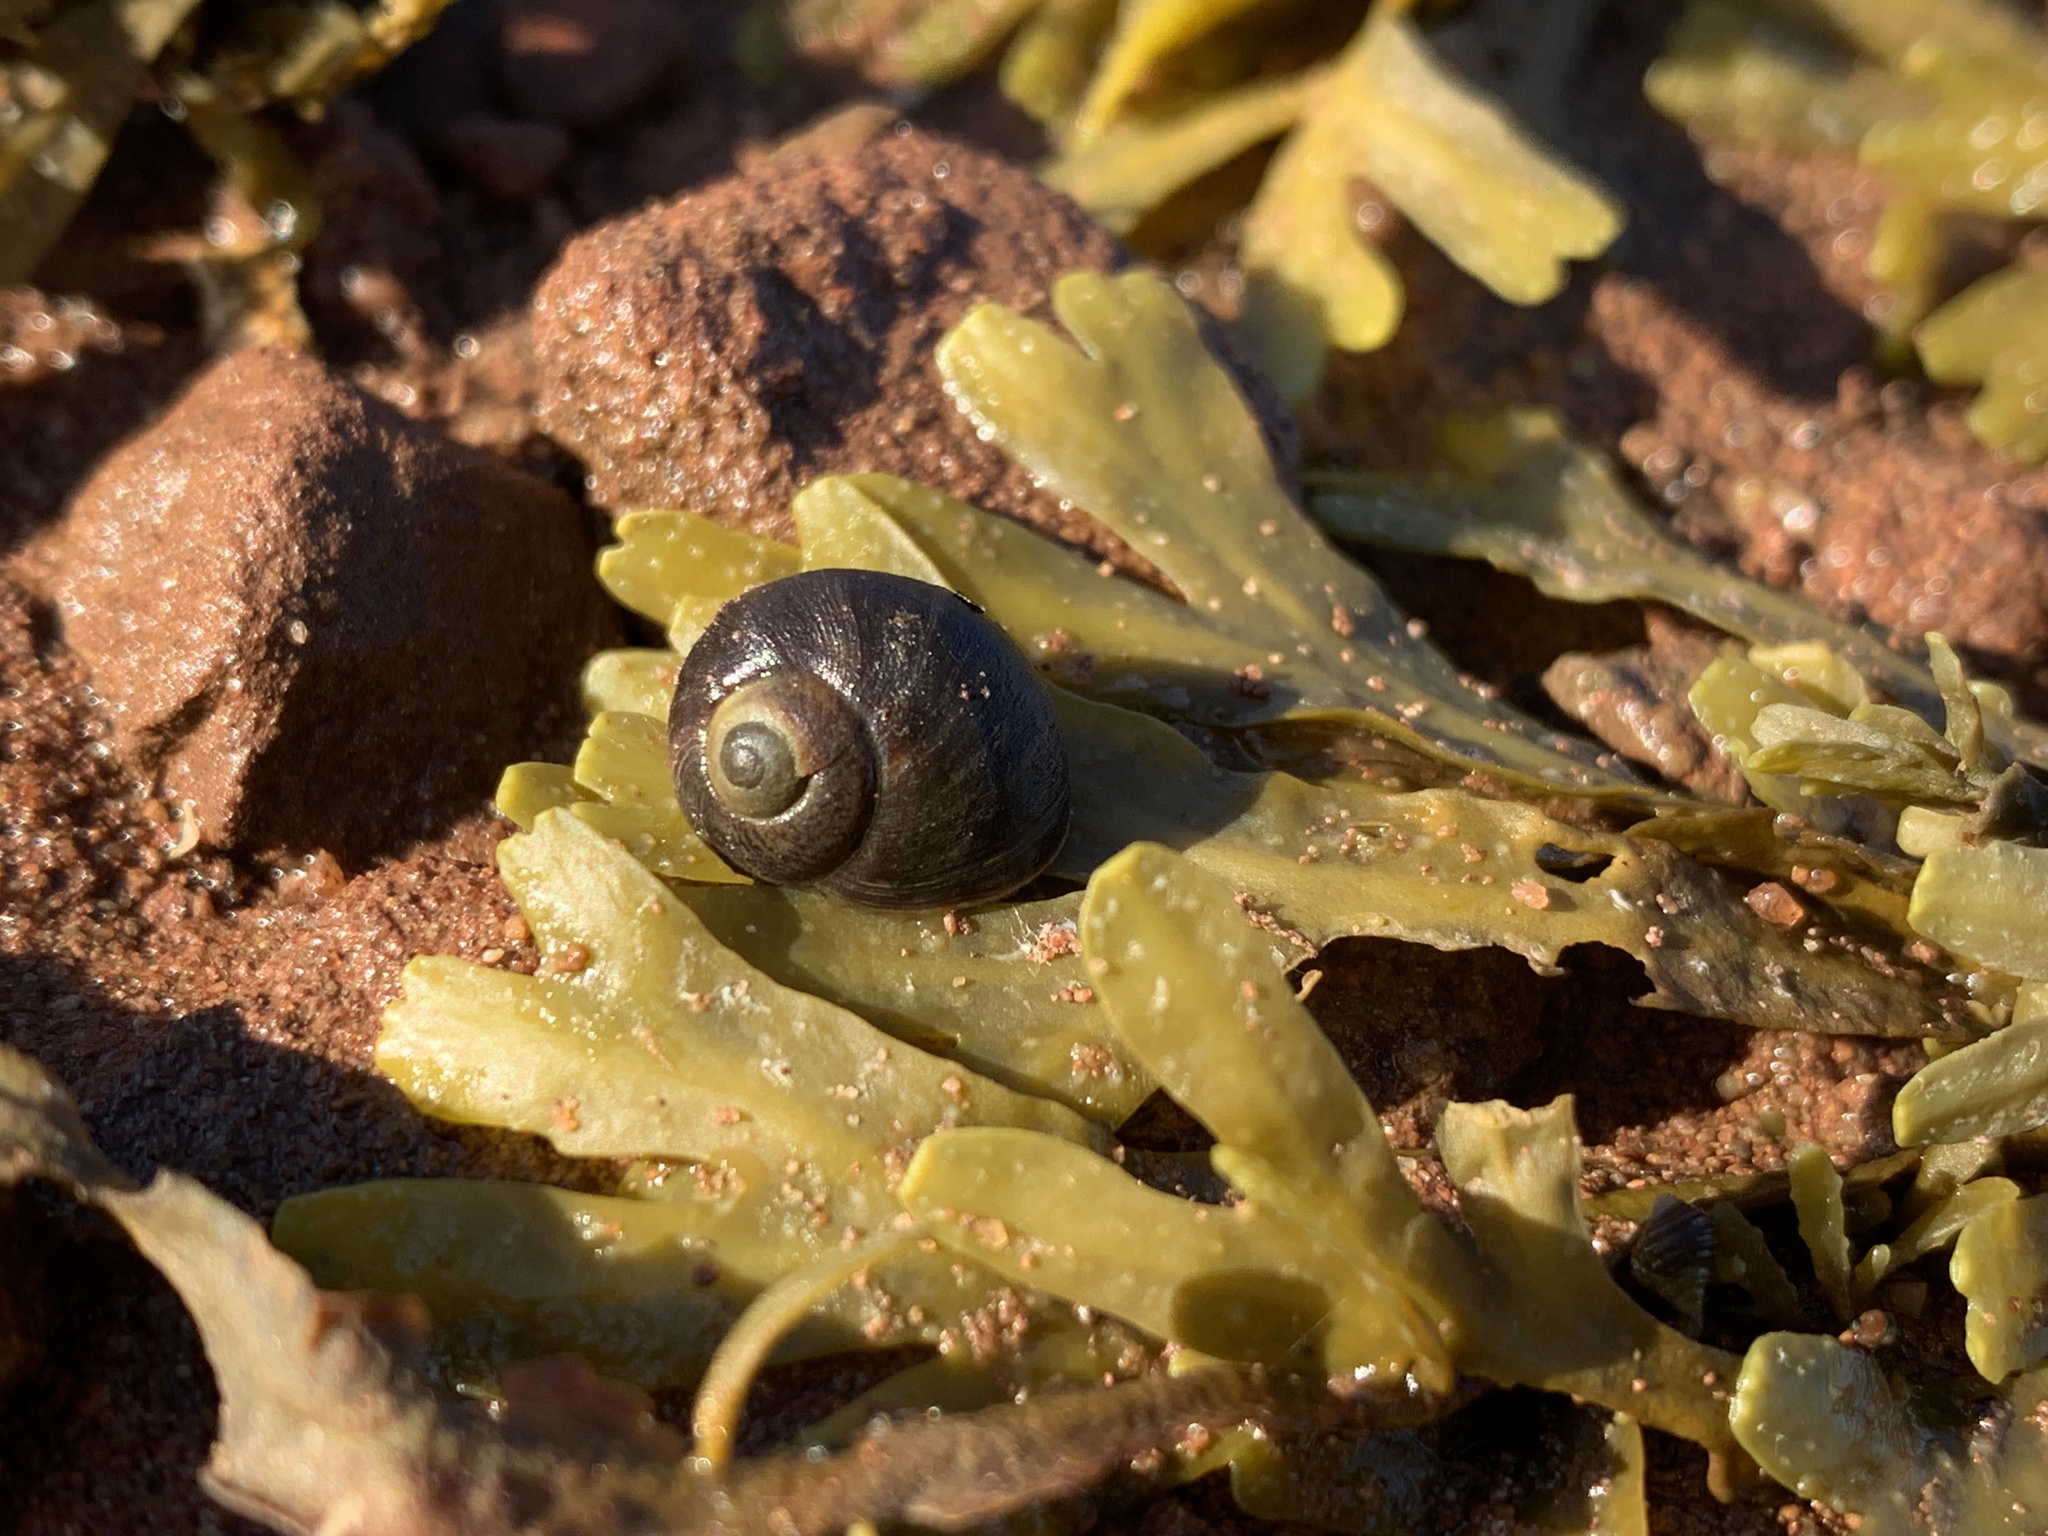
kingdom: Animalia
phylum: Mollusca
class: Gastropoda
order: Littorinimorpha
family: Littorinidae
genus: Littorina
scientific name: Littorina obtusata
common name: Flat periwinkle
